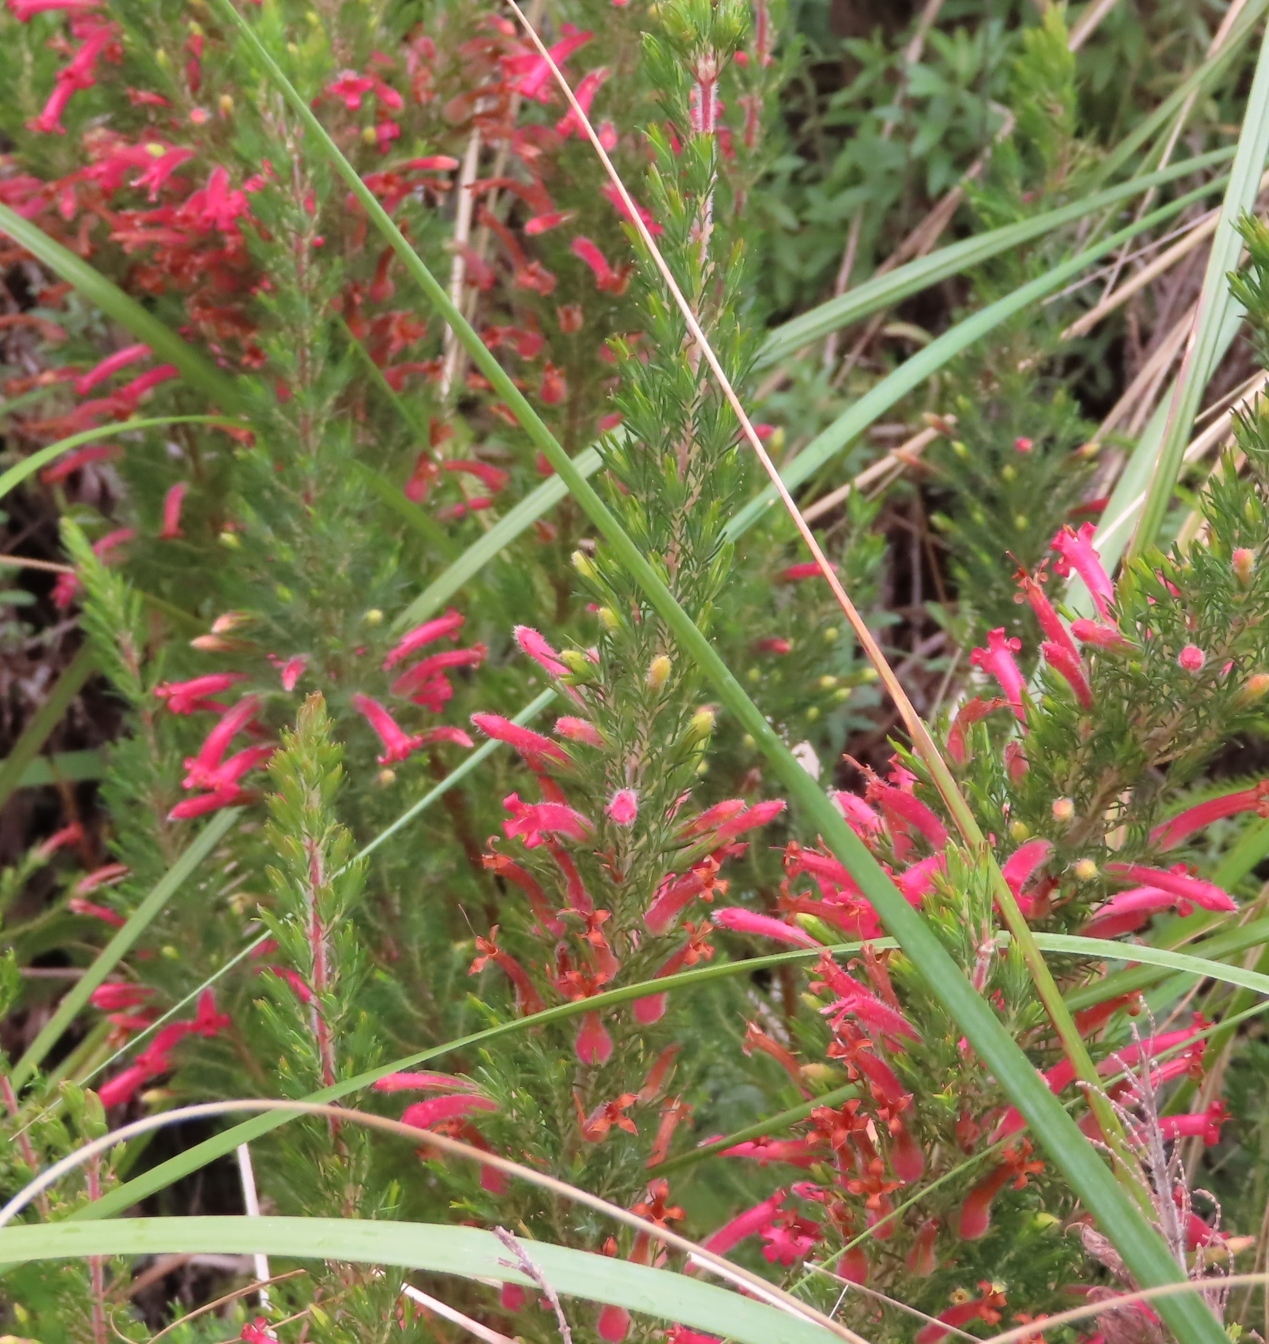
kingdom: Plantae
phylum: Tracheophyta
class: Magnoliopsida
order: Ericales
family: Ericaceae
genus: Erica
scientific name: Erica curviflora
